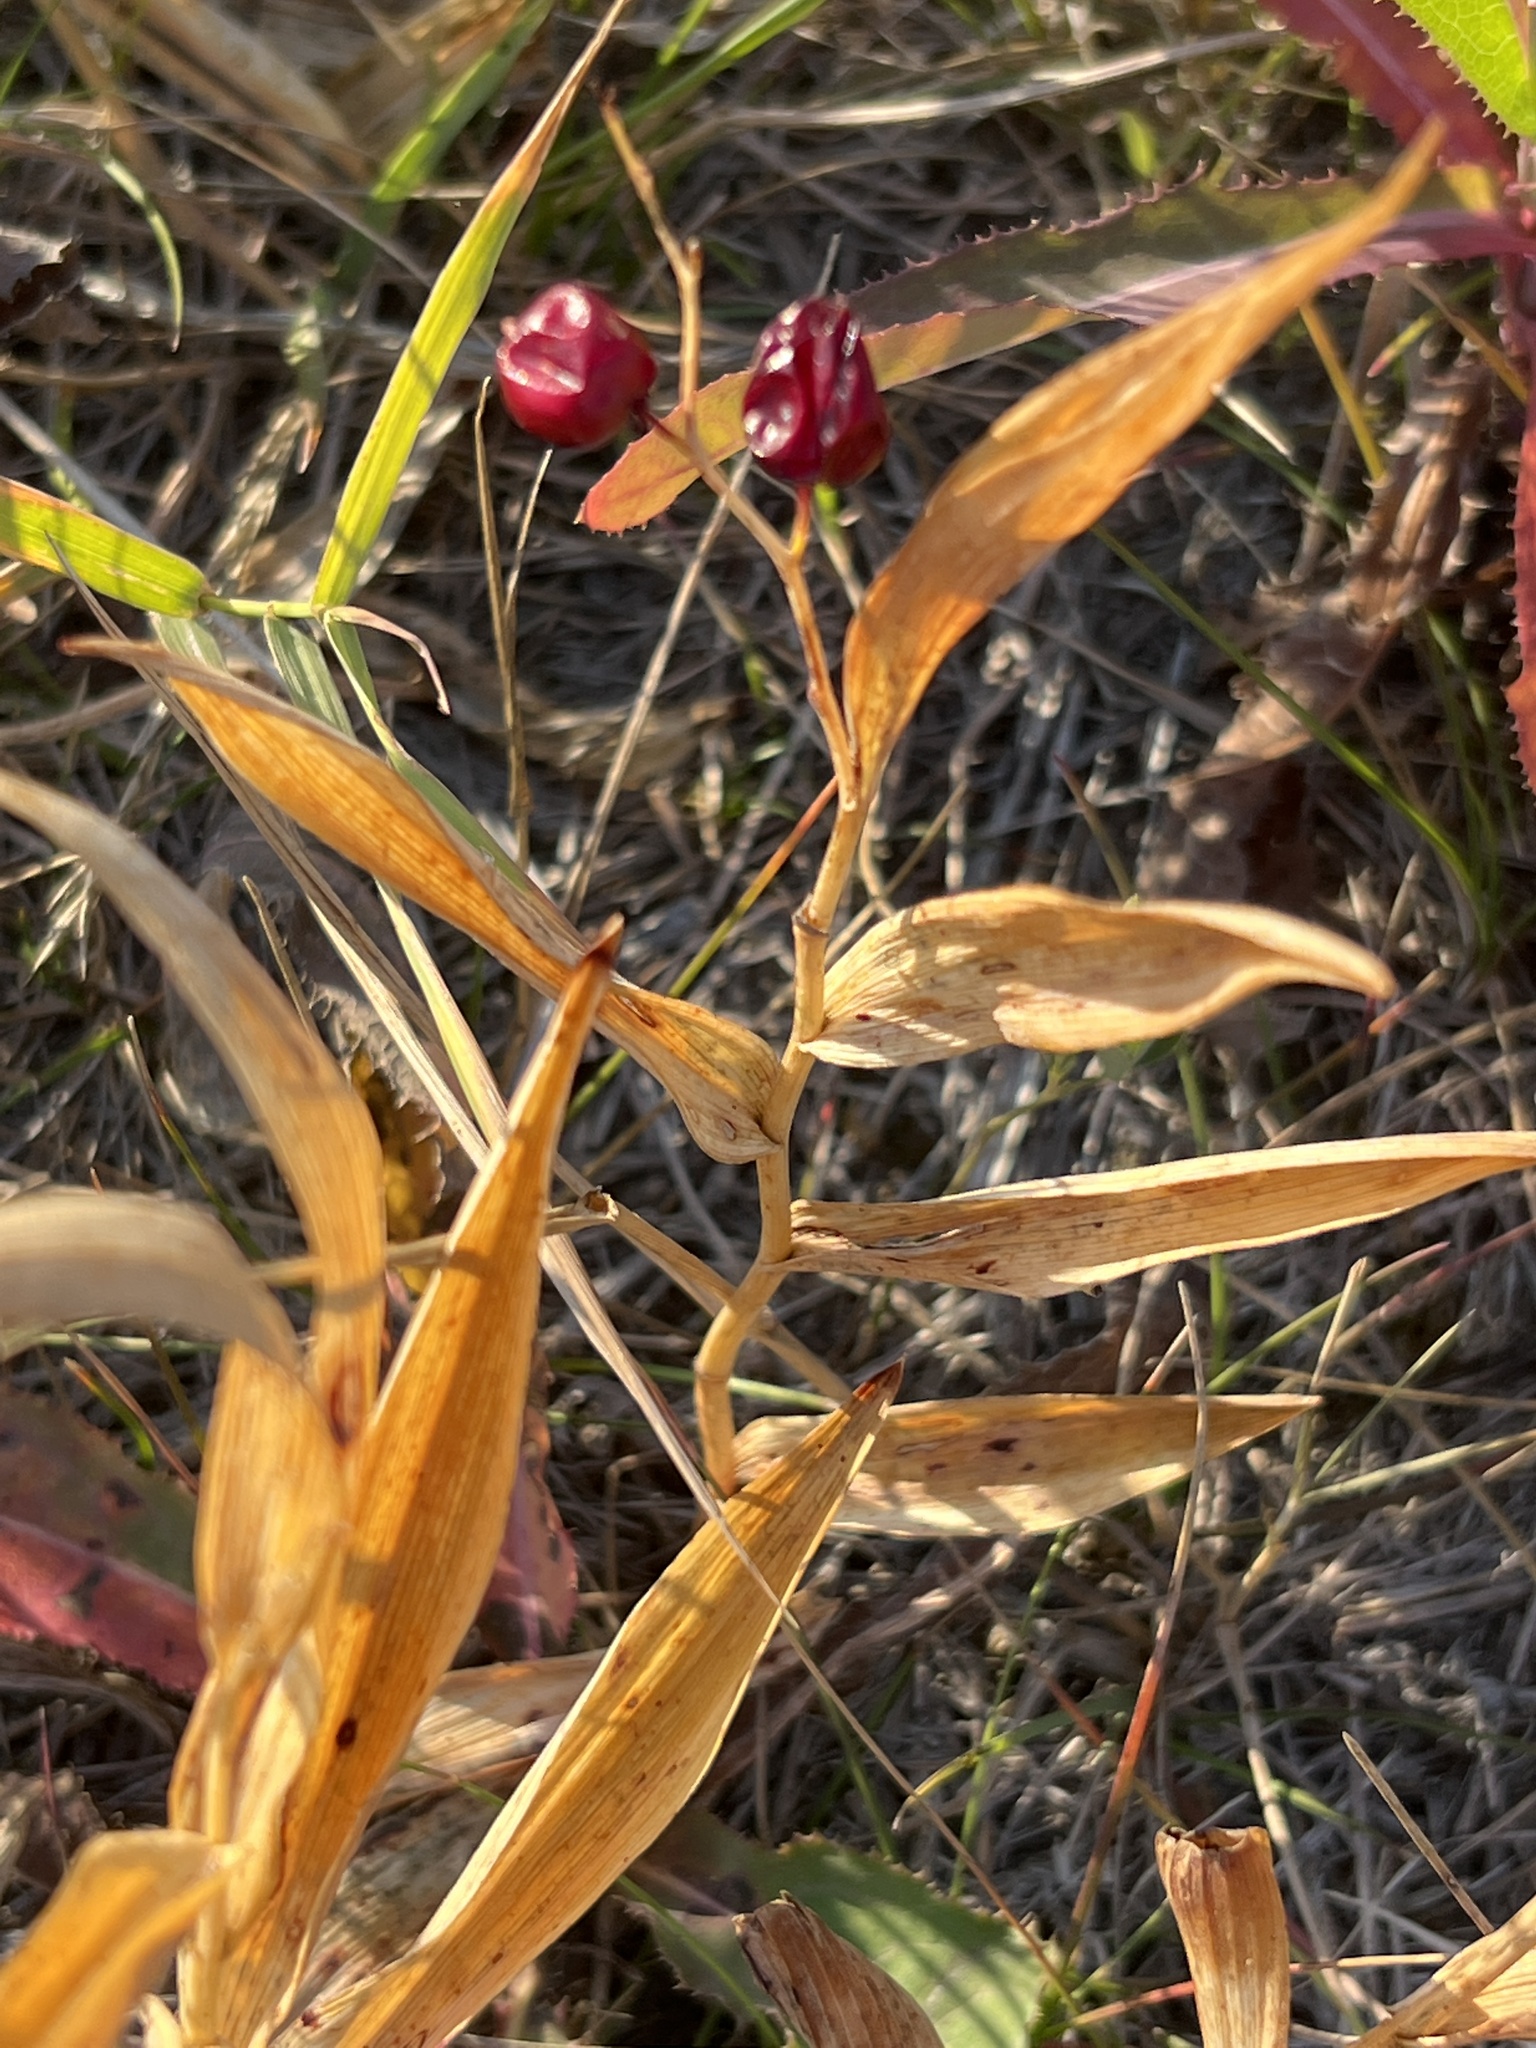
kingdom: Plantae
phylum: Tracheophyta
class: Liliopsida
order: Asparagales
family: Asparagaceae
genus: Maianthemum
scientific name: Maianthemum stellatum
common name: Little false solomon's seal
